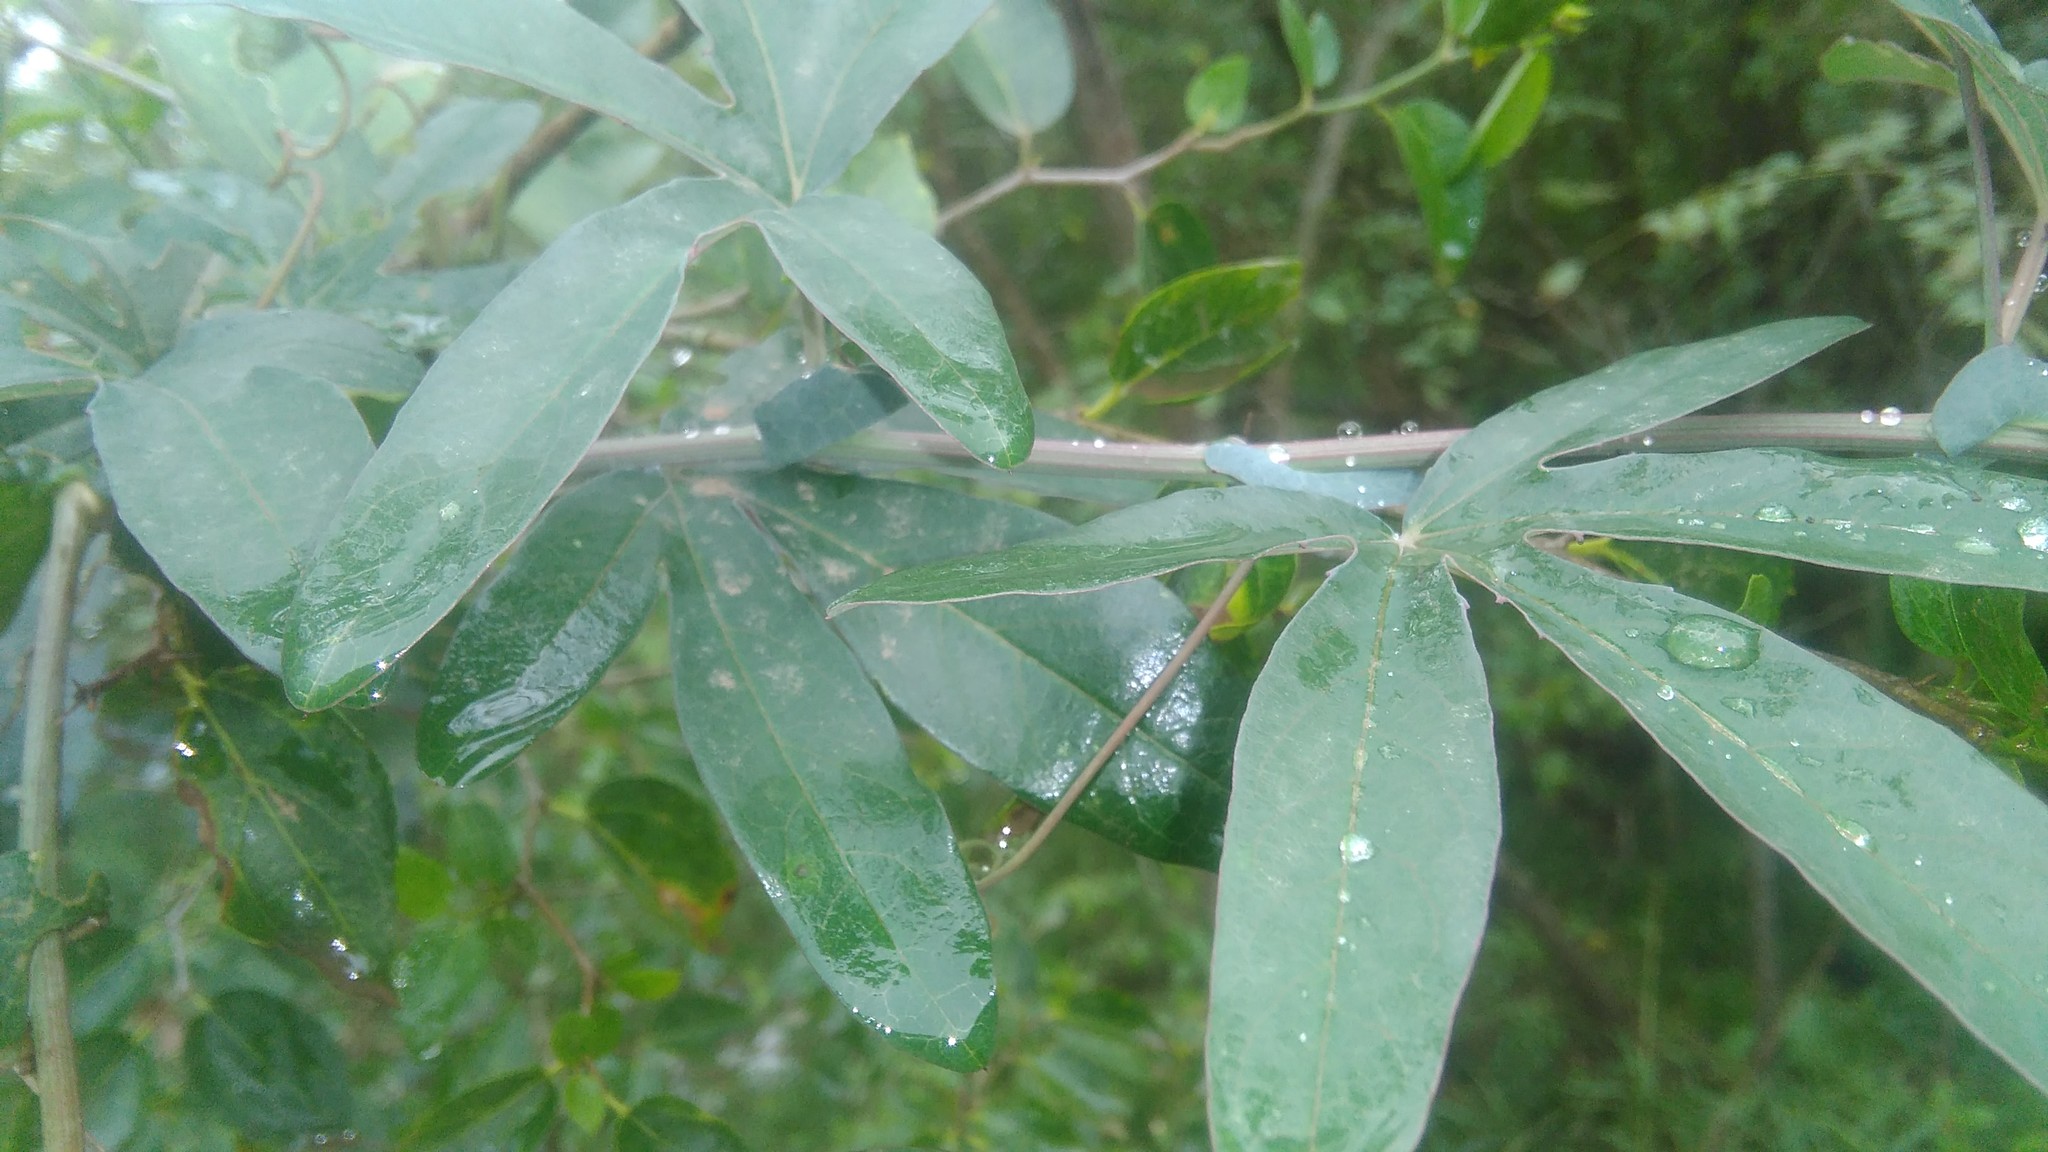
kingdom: Plantae
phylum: Tracheophyta
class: Magnoliopsida
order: Malpighiales
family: Passifloraceae
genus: Passiflora
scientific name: Passiflora caerulea
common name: Blue passionflower
